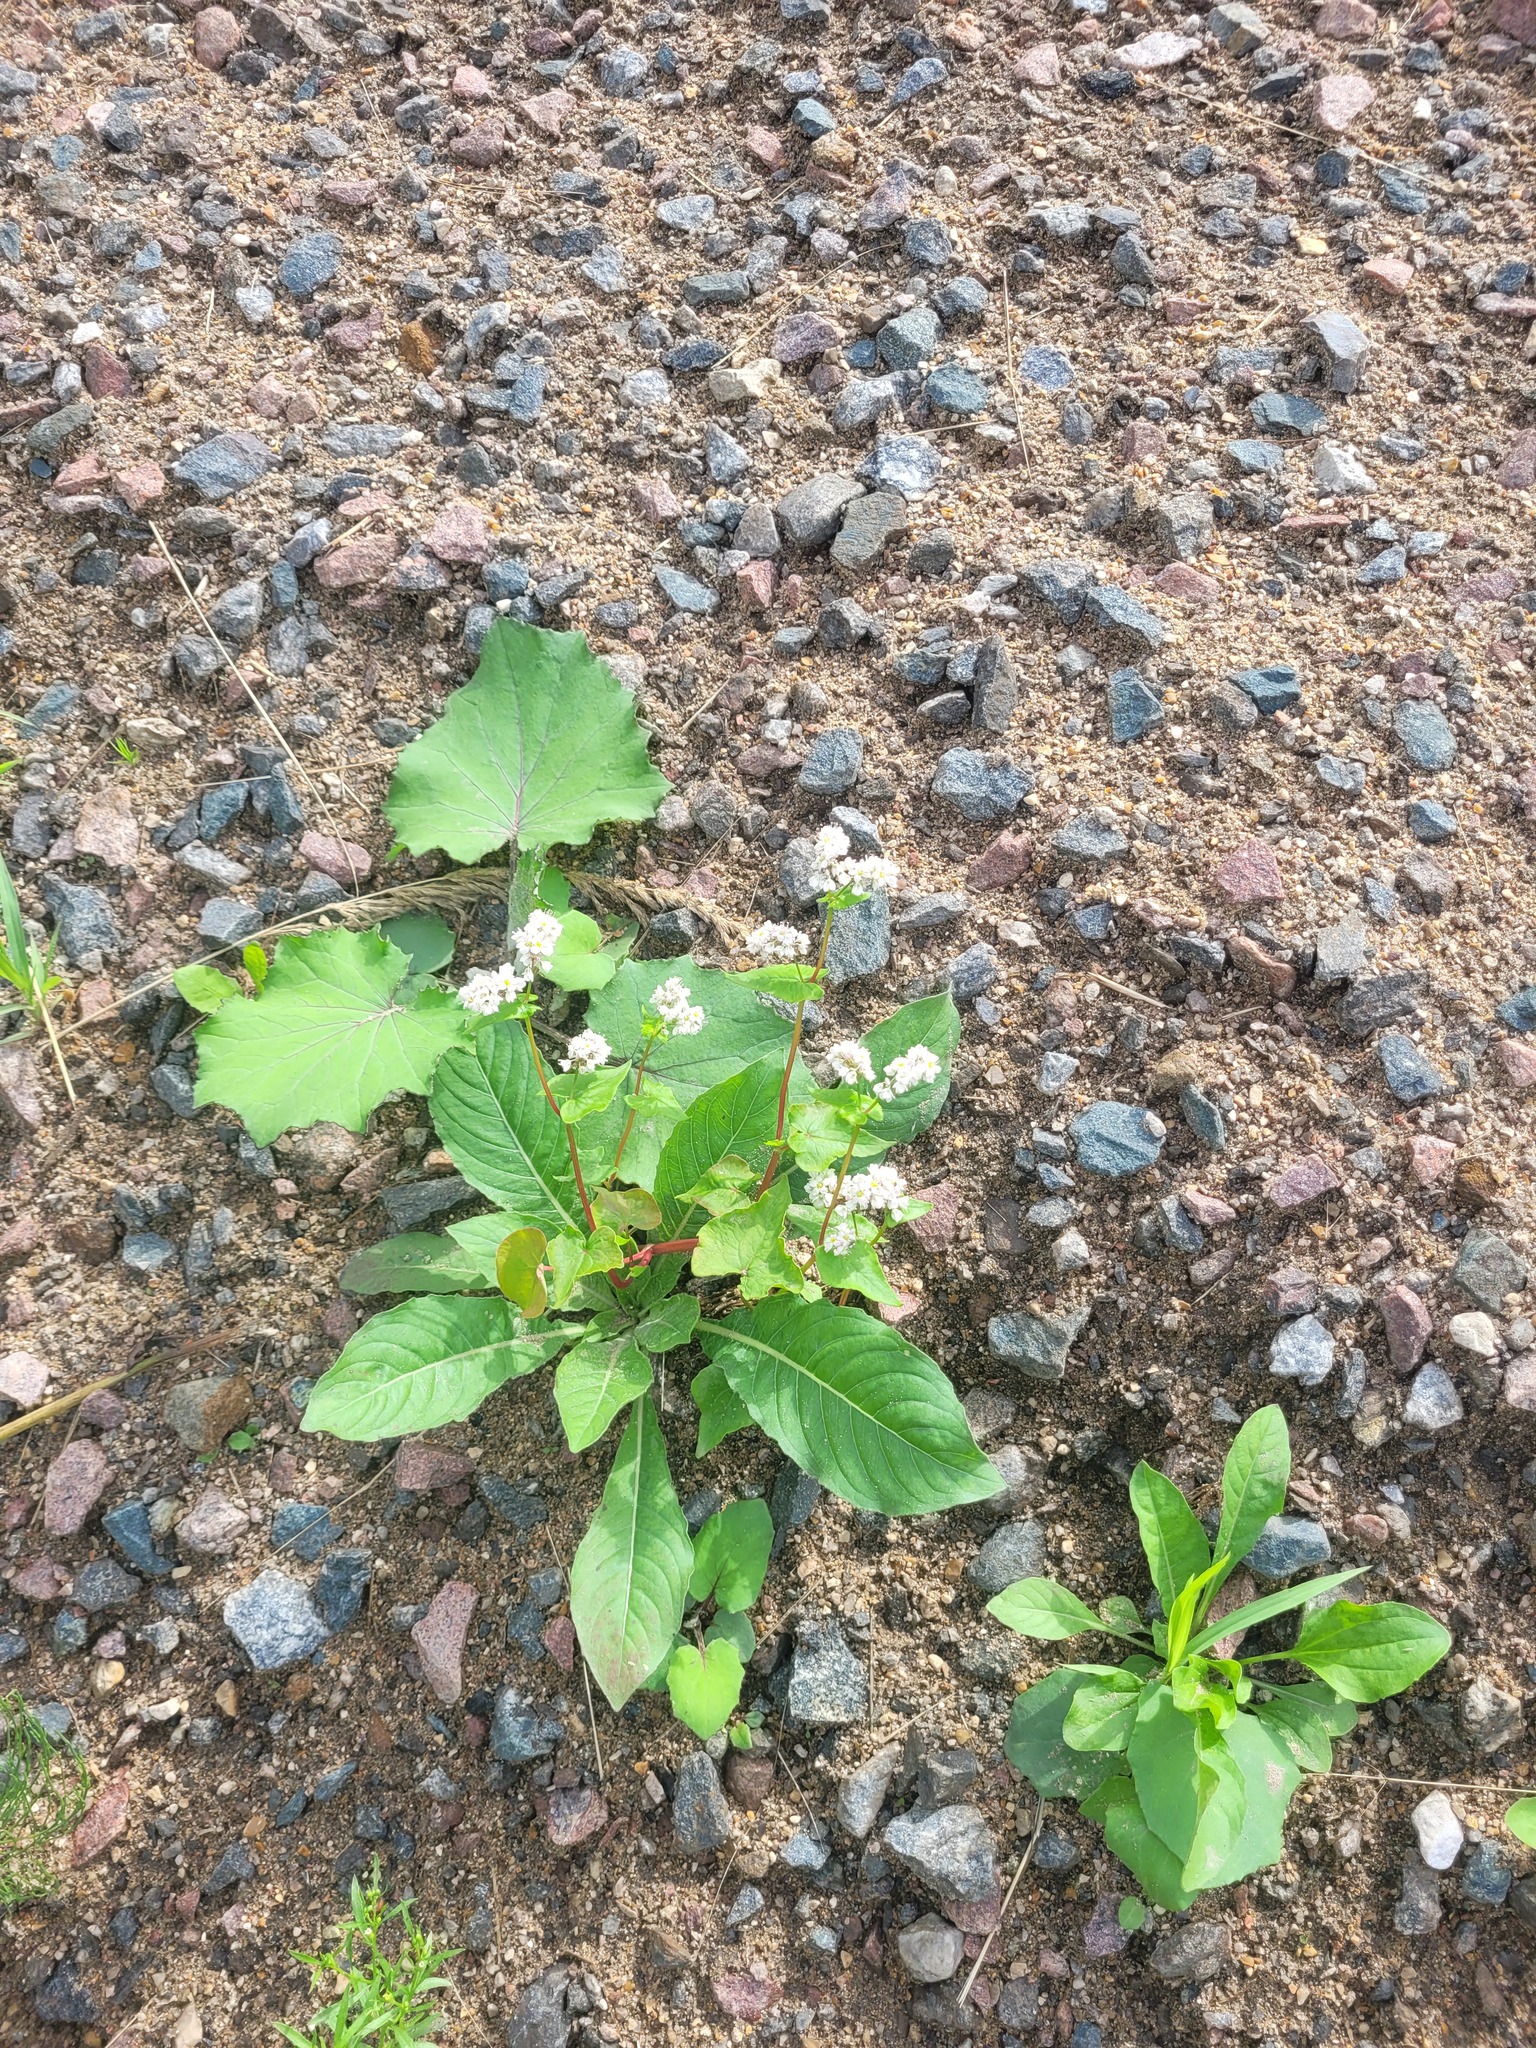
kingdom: Plantae
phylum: Tracheophyta
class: Magnoliopsida
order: Caryophyllales
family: Polygonaceae
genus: Fagopyrum
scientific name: Fagopyrum esculentum
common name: Buckwheat
